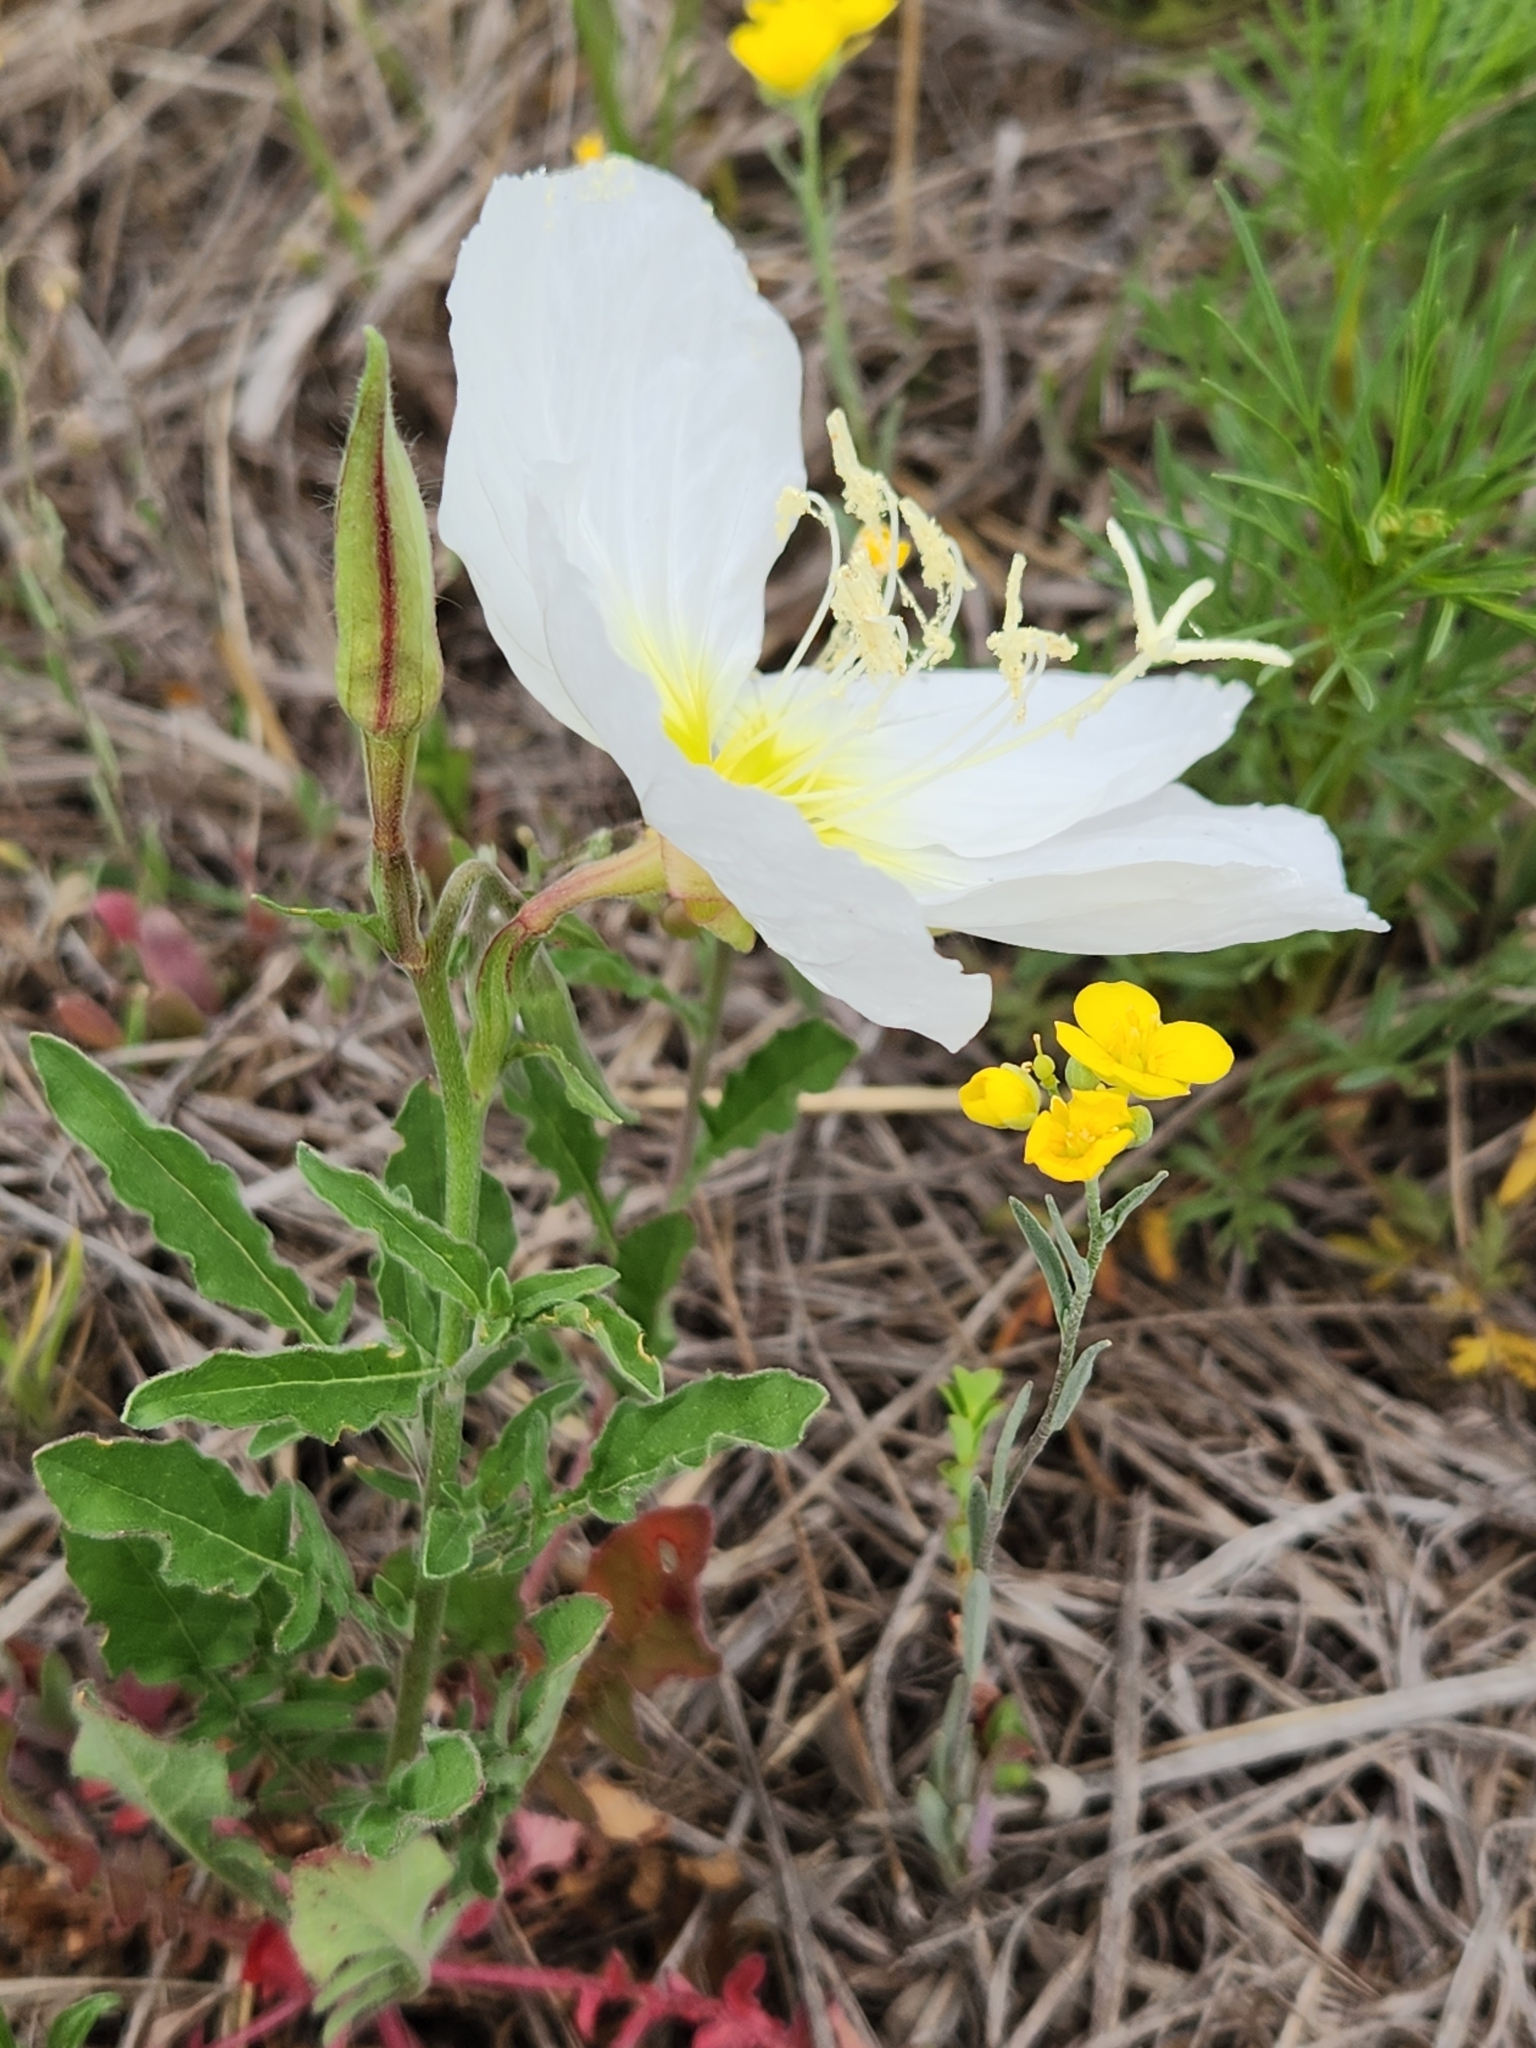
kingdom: Plantae
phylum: Tracheophyta
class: Magnoliopsida
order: Myrtales
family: Onagraceae
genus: Oenothera
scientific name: Oenothera speciosa
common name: White evening-primrose
